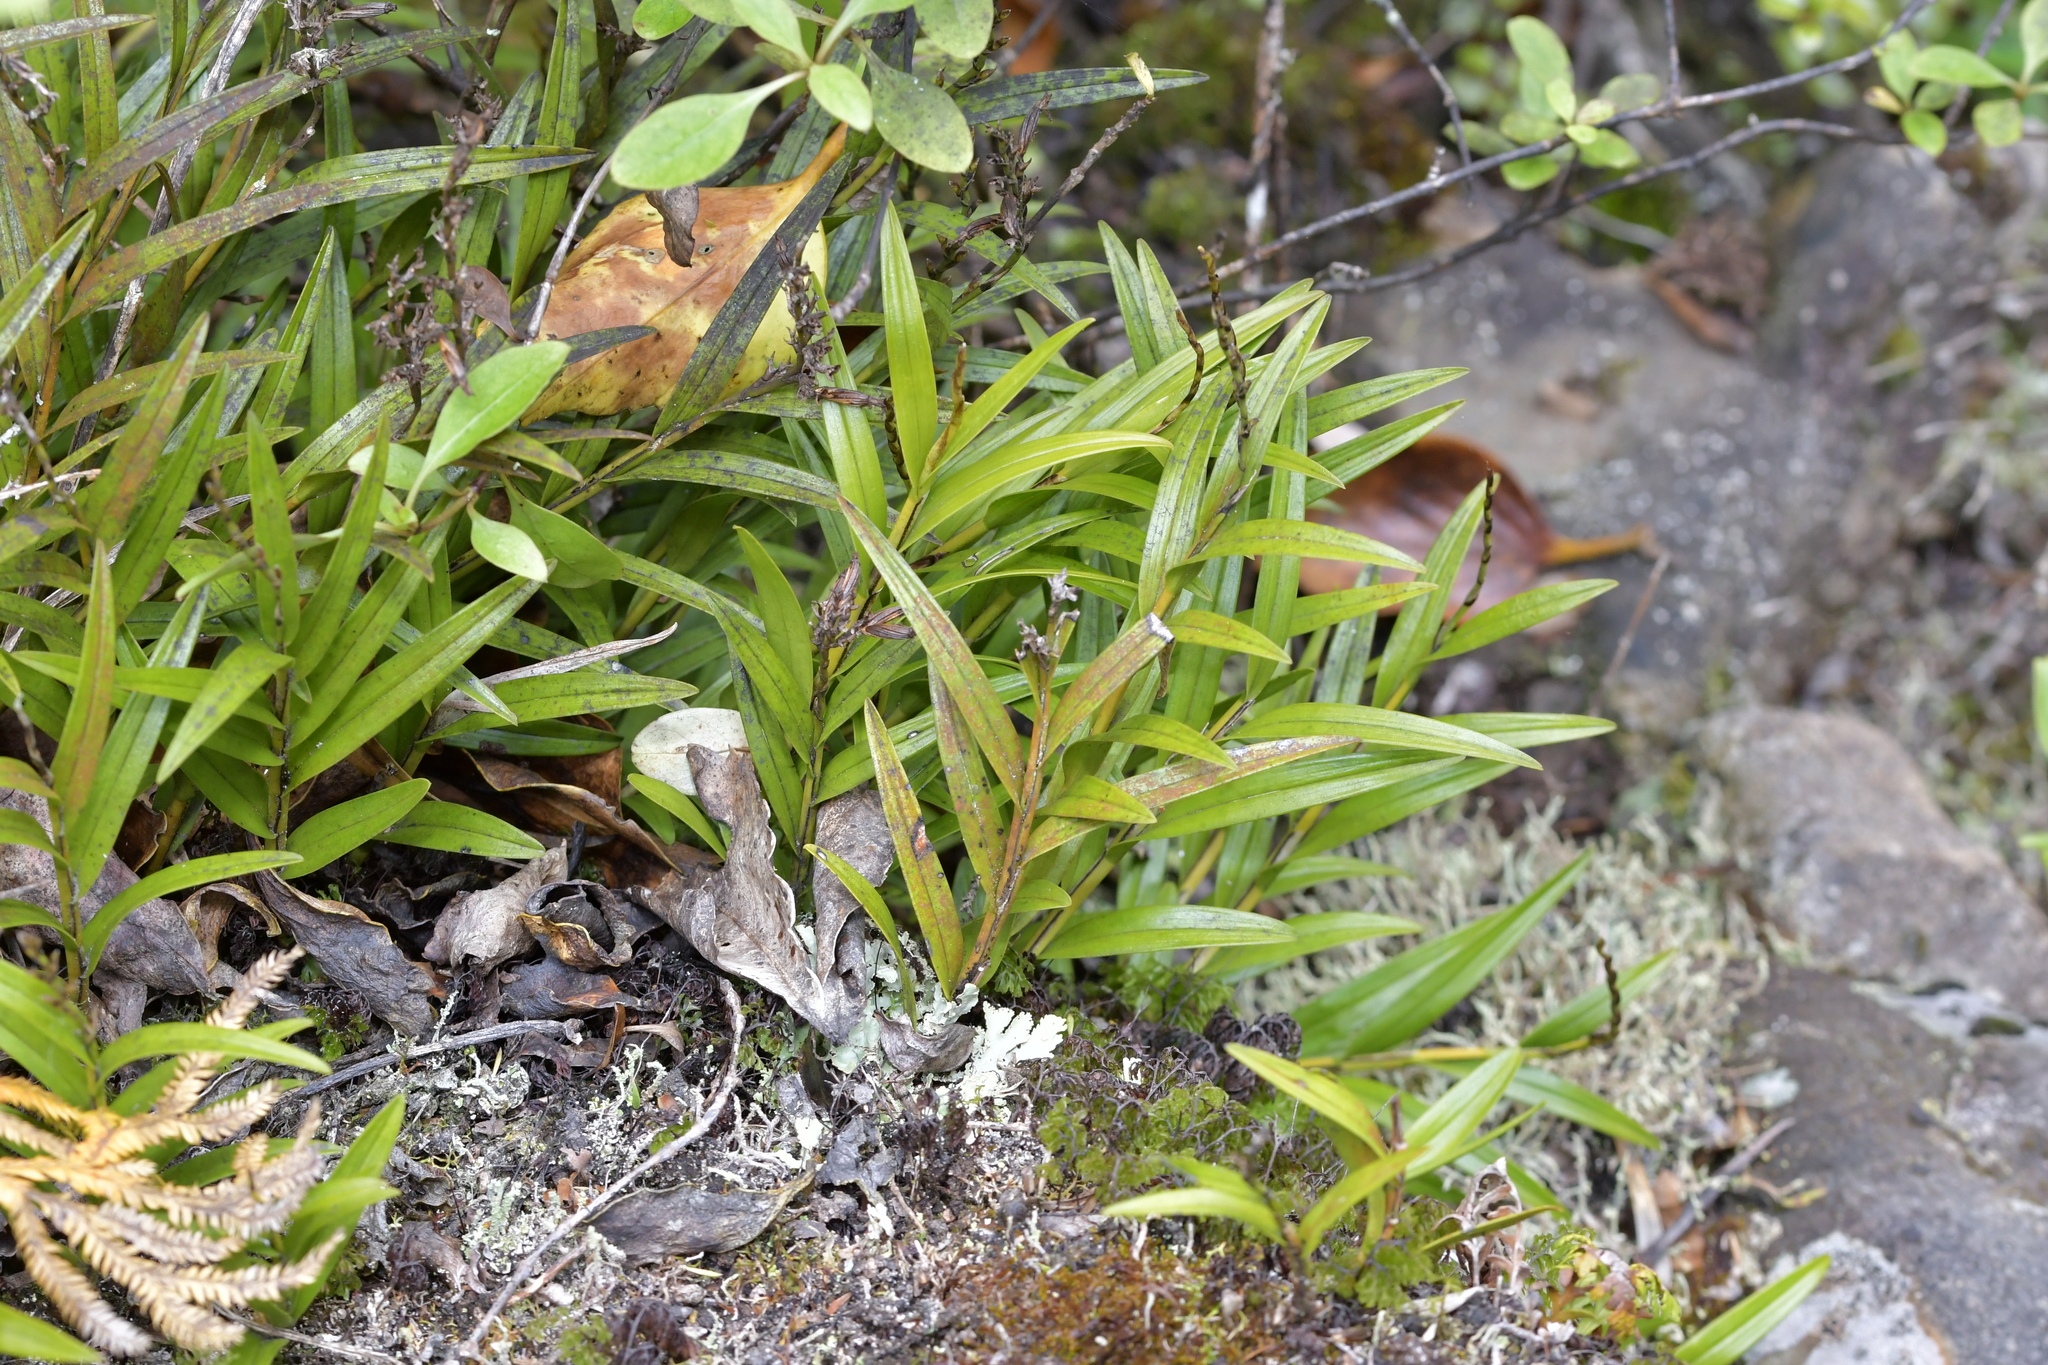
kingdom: Plantae
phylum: Tracheophyta
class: Liliopsida
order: Asparagales
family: Orchidaceae
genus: Earina
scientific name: Earina autumnalis
